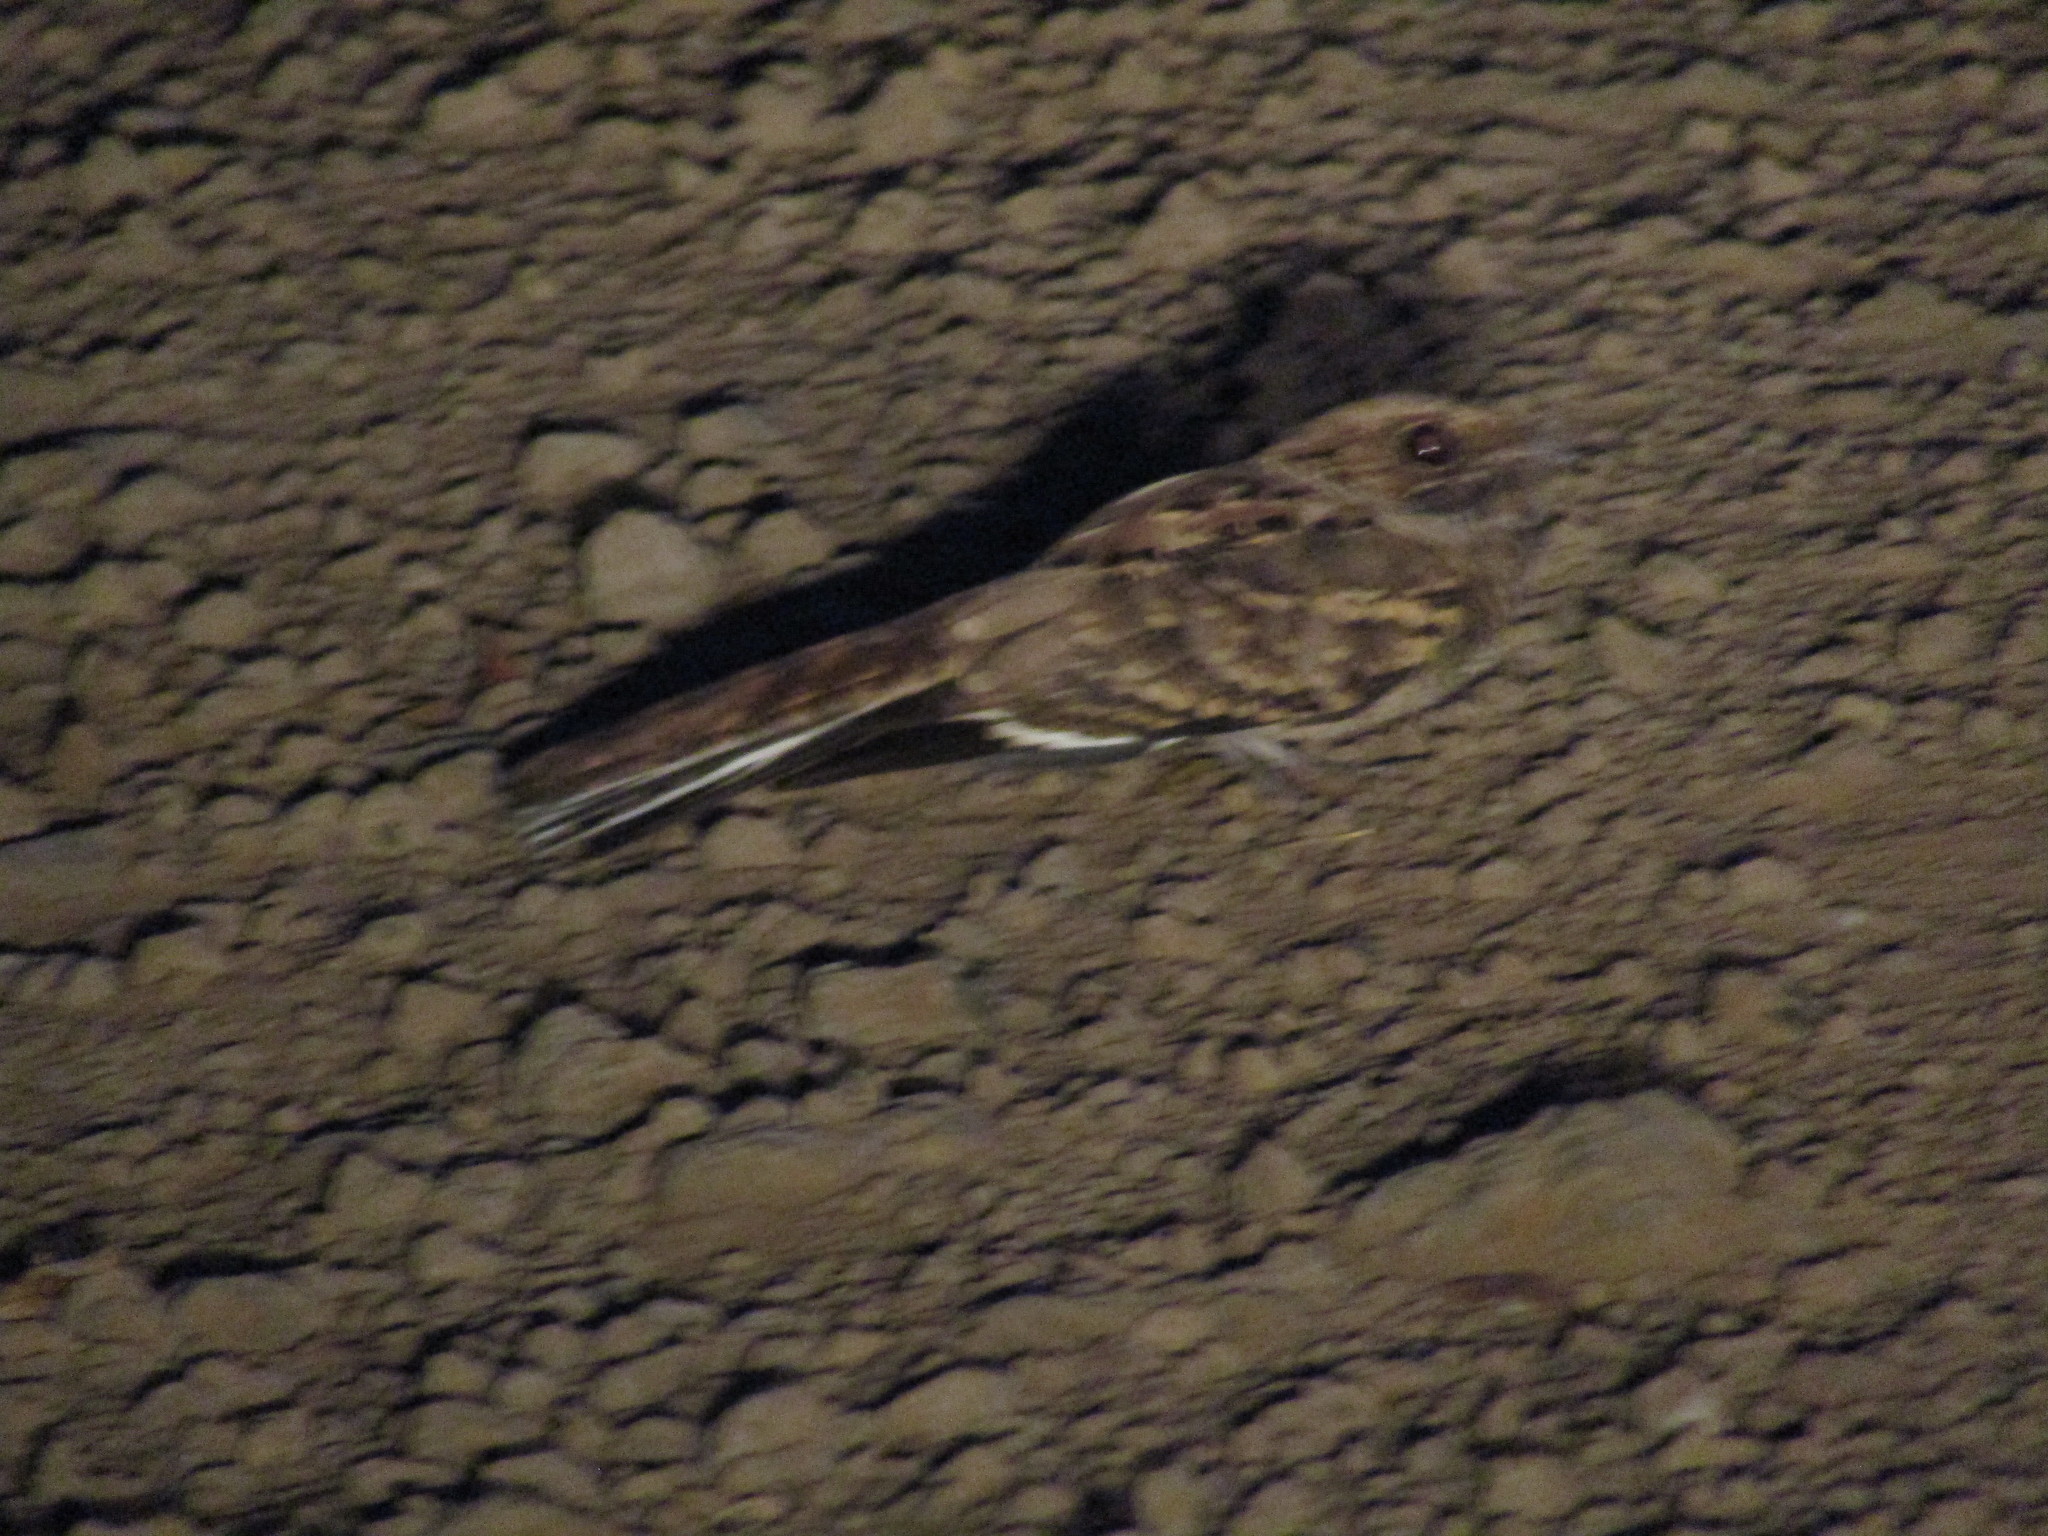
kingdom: Animalia
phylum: Chordata
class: Aves
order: Caprimulgiformes
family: Caprimulgidae
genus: Nyctidromus
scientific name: Nyctidromus albicollis
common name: Pauraque
